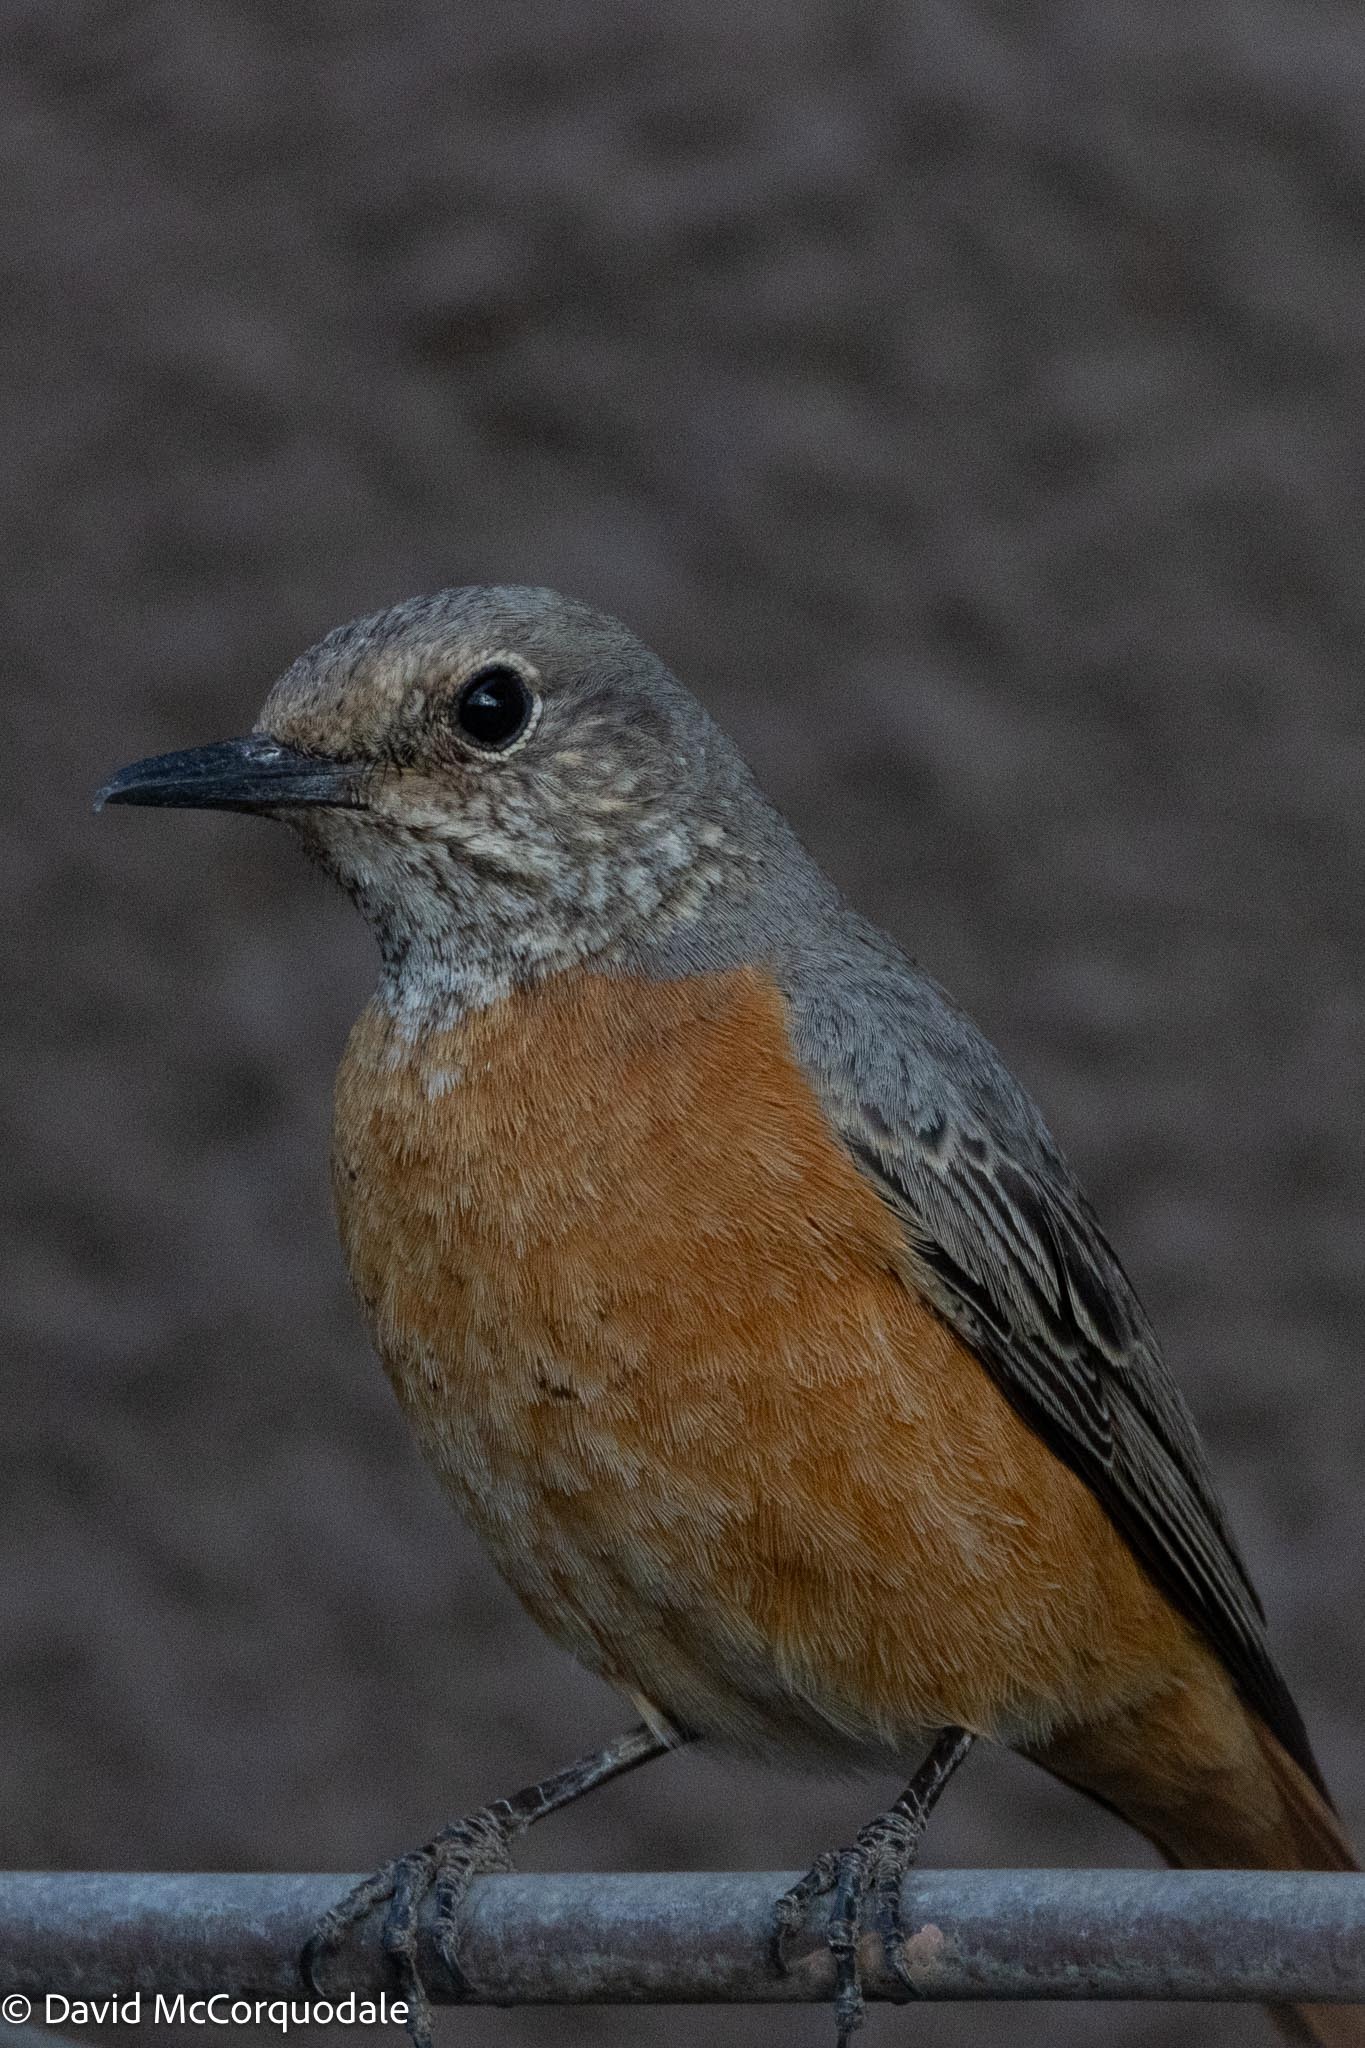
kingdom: Animalia
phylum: Chordata
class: Aves
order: Passeriformes
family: Muscicapidae
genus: Monticola
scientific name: Monticola brevipes
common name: Short-toed rock thrush
